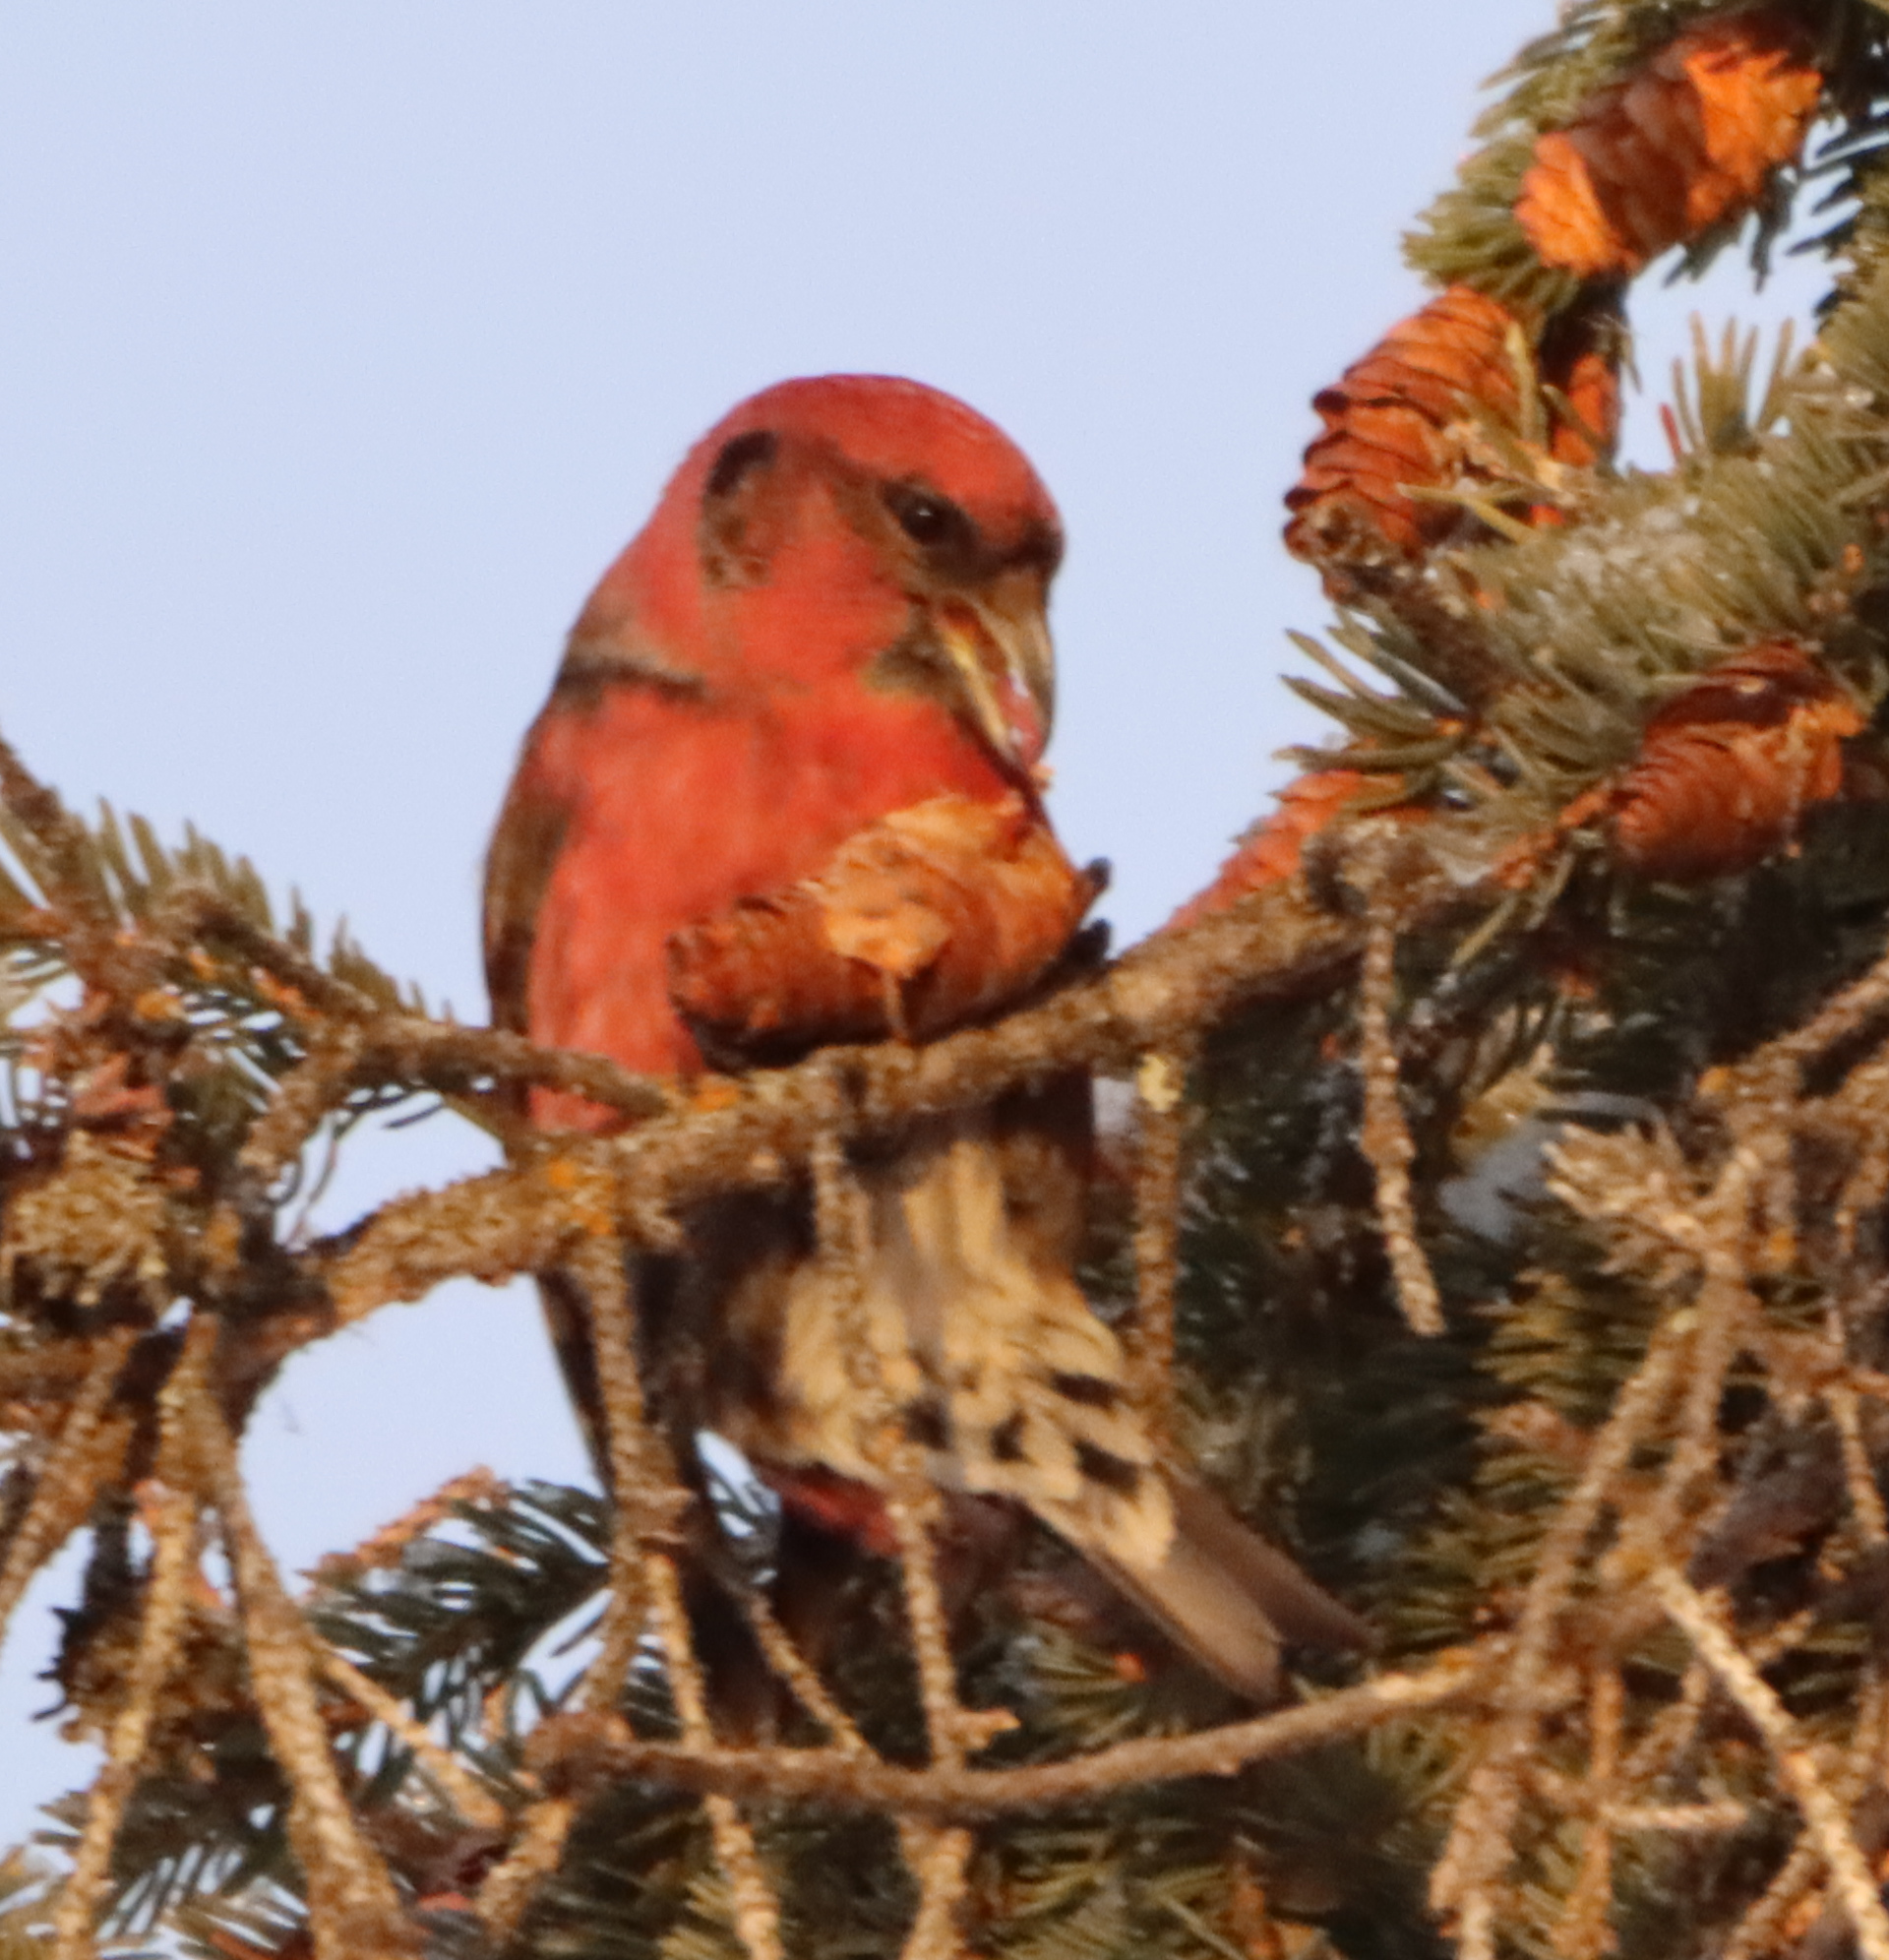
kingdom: Animalia
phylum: Chordata
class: Aves
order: Passeriformes
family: Fringillidae
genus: Loxia
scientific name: Loxia leucoptera
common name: Two-barred crossbill
